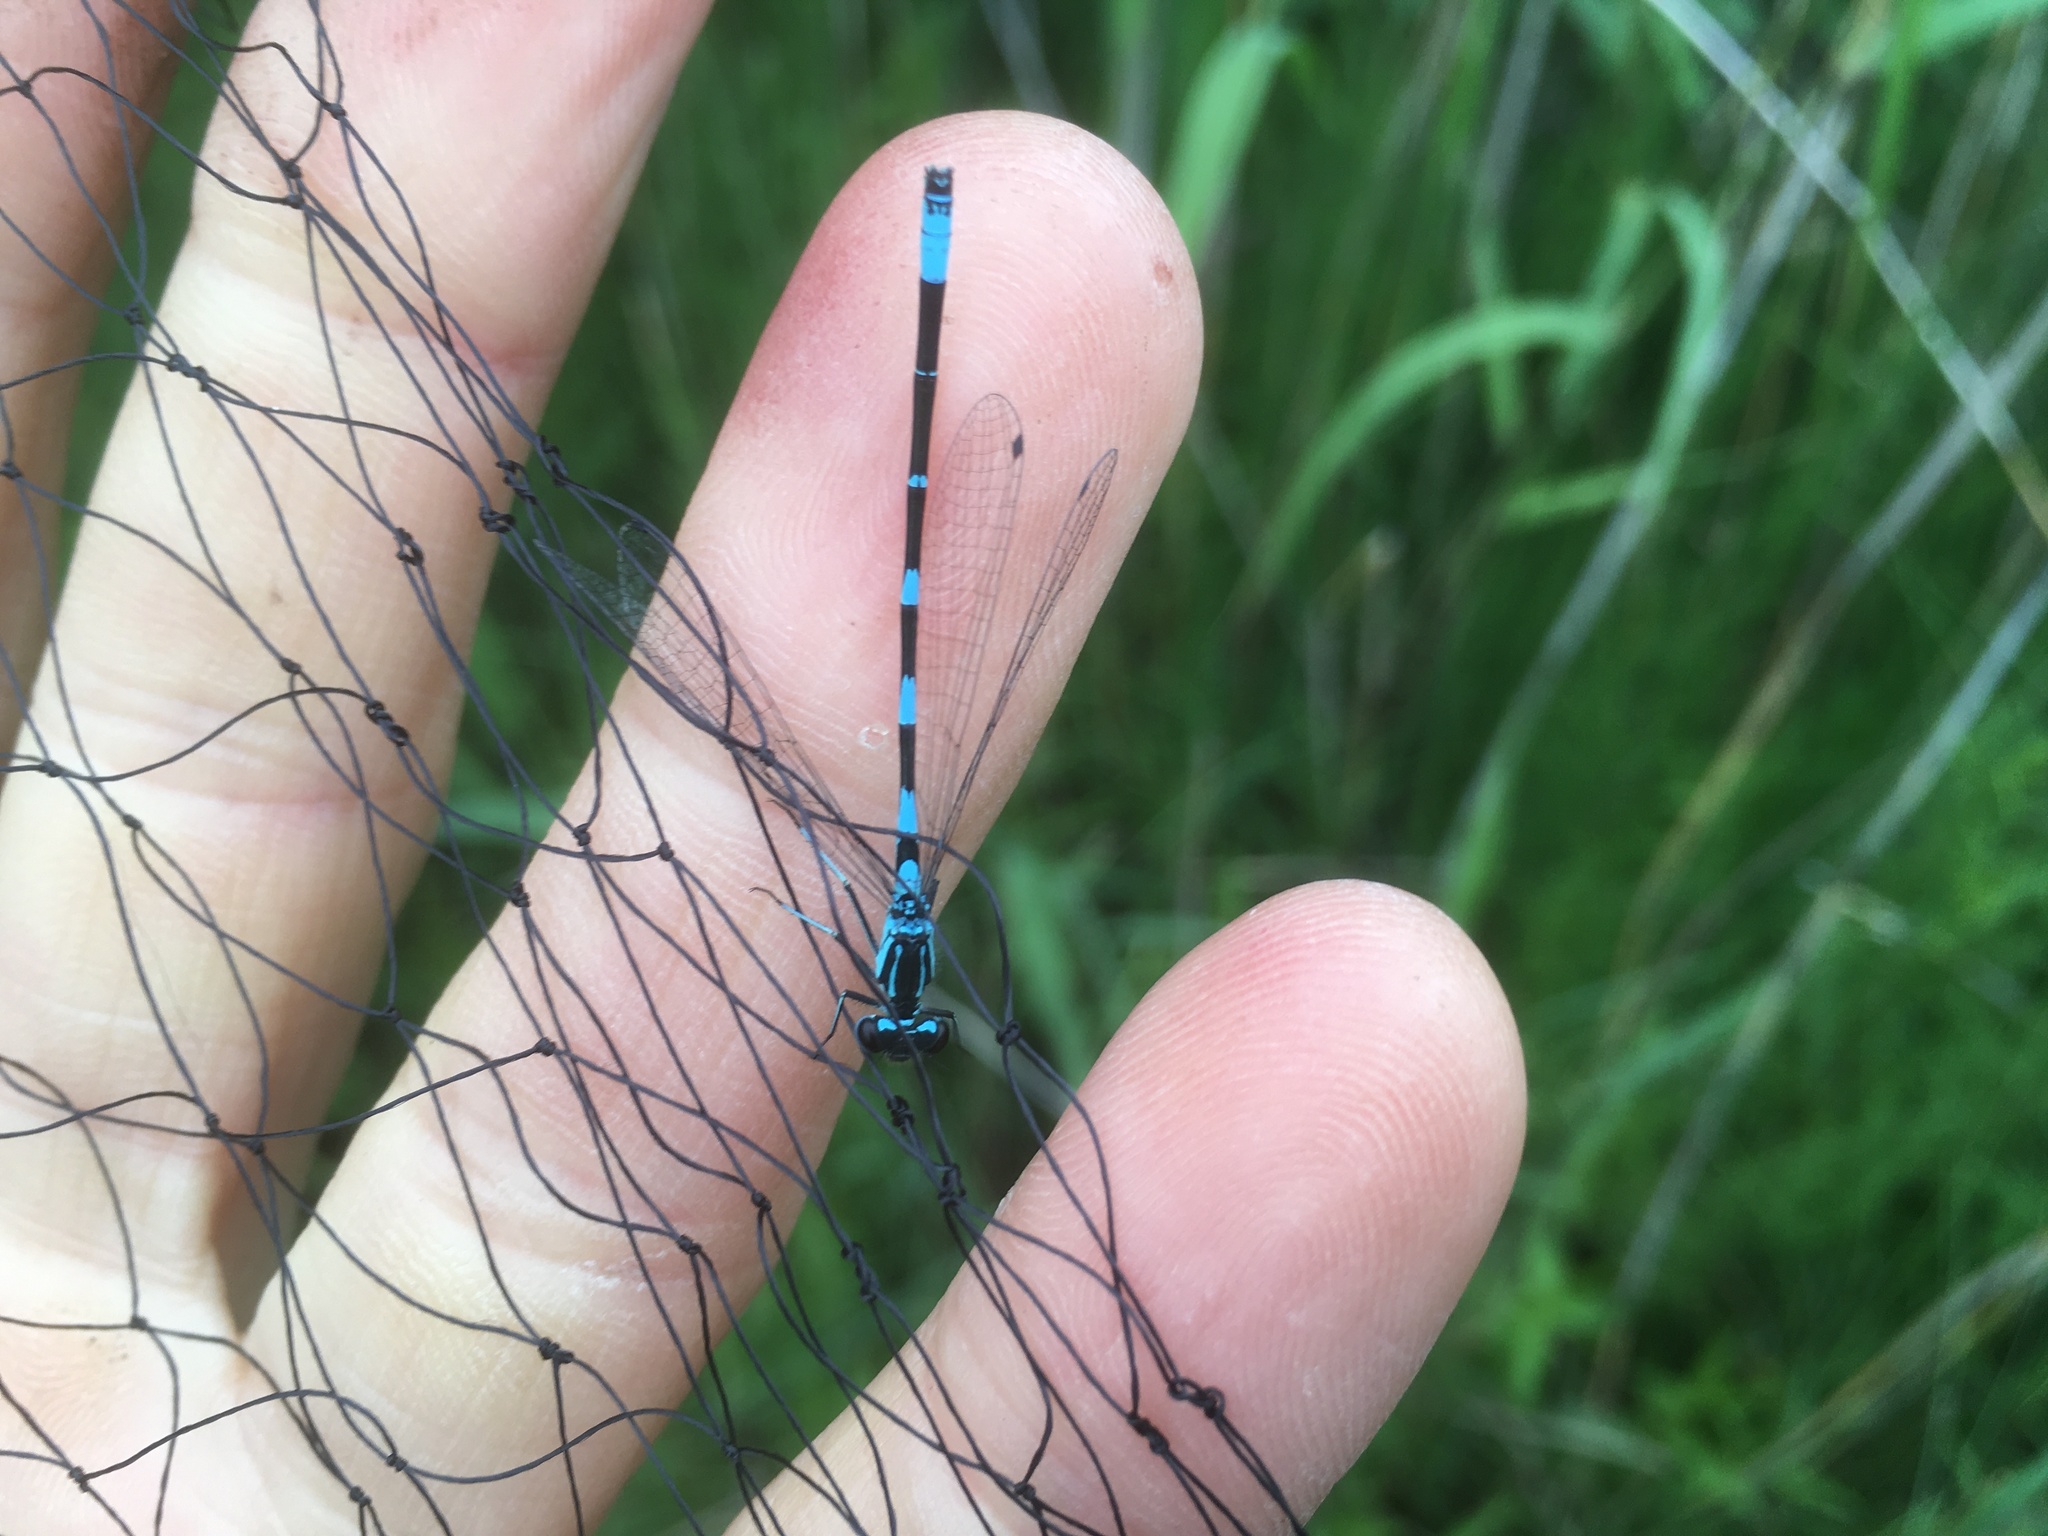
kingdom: Animalia
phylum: Arthropoda
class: Insecta
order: Odonata
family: Coenagrionidae
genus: Coenagrion
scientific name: Coenagrion pulchellum
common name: Variable bluet
